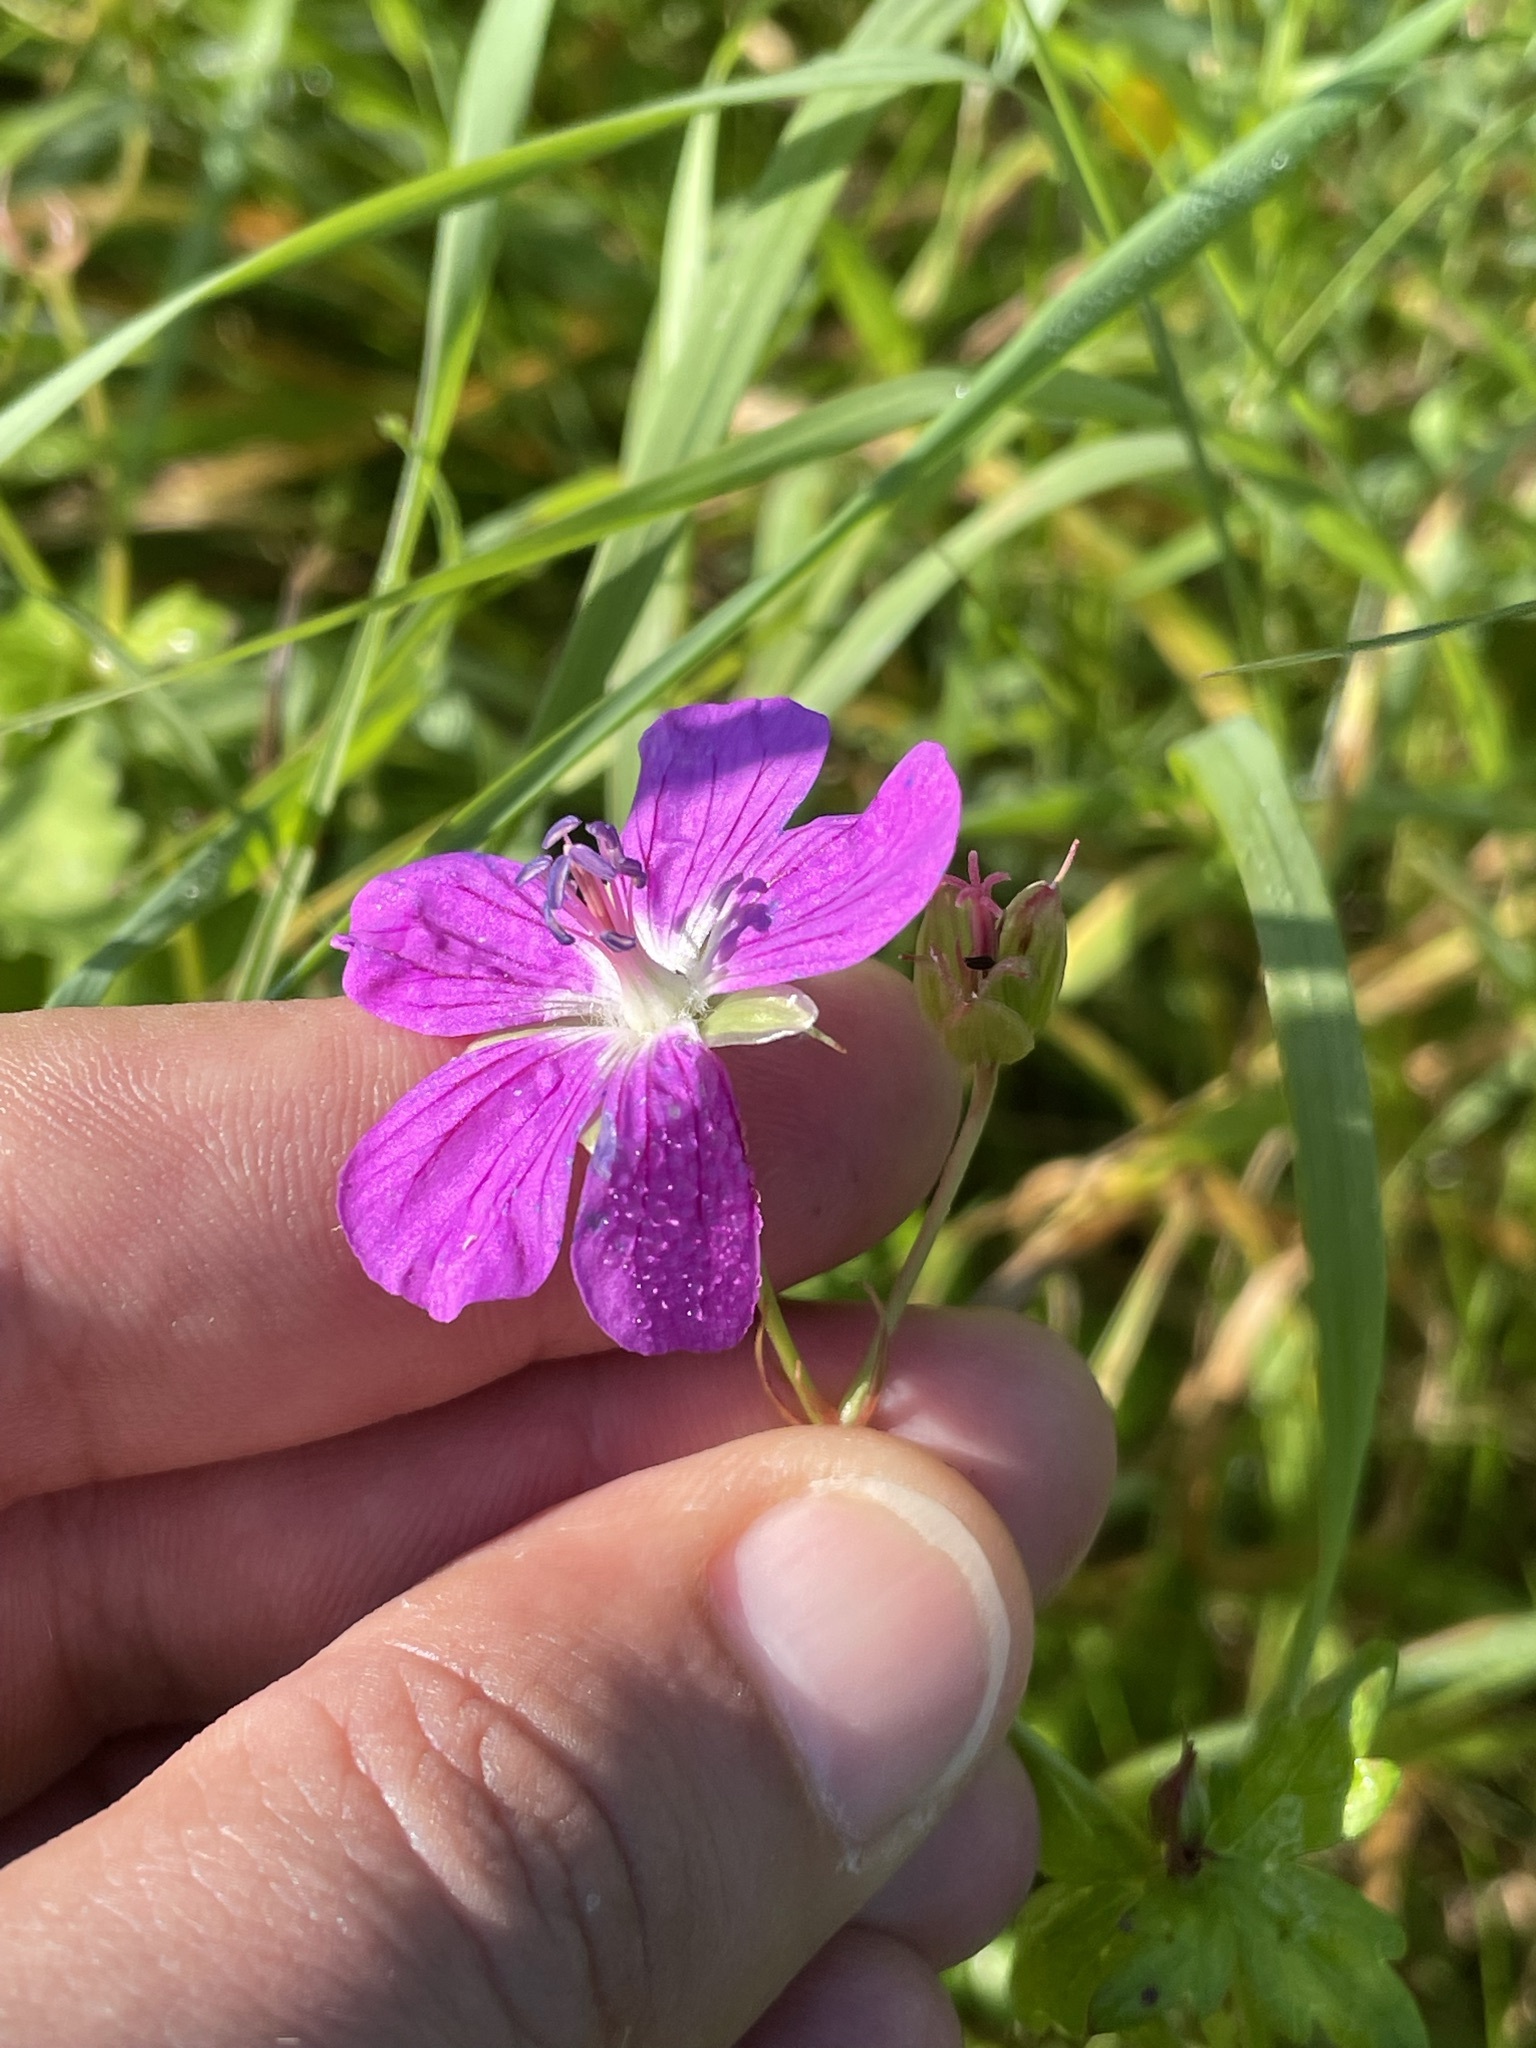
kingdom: Plantae
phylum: Tracheophyta
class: Magnoliopsida
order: Geraniales
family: Geraniaceae
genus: Geranium
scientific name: Geranium palustre
